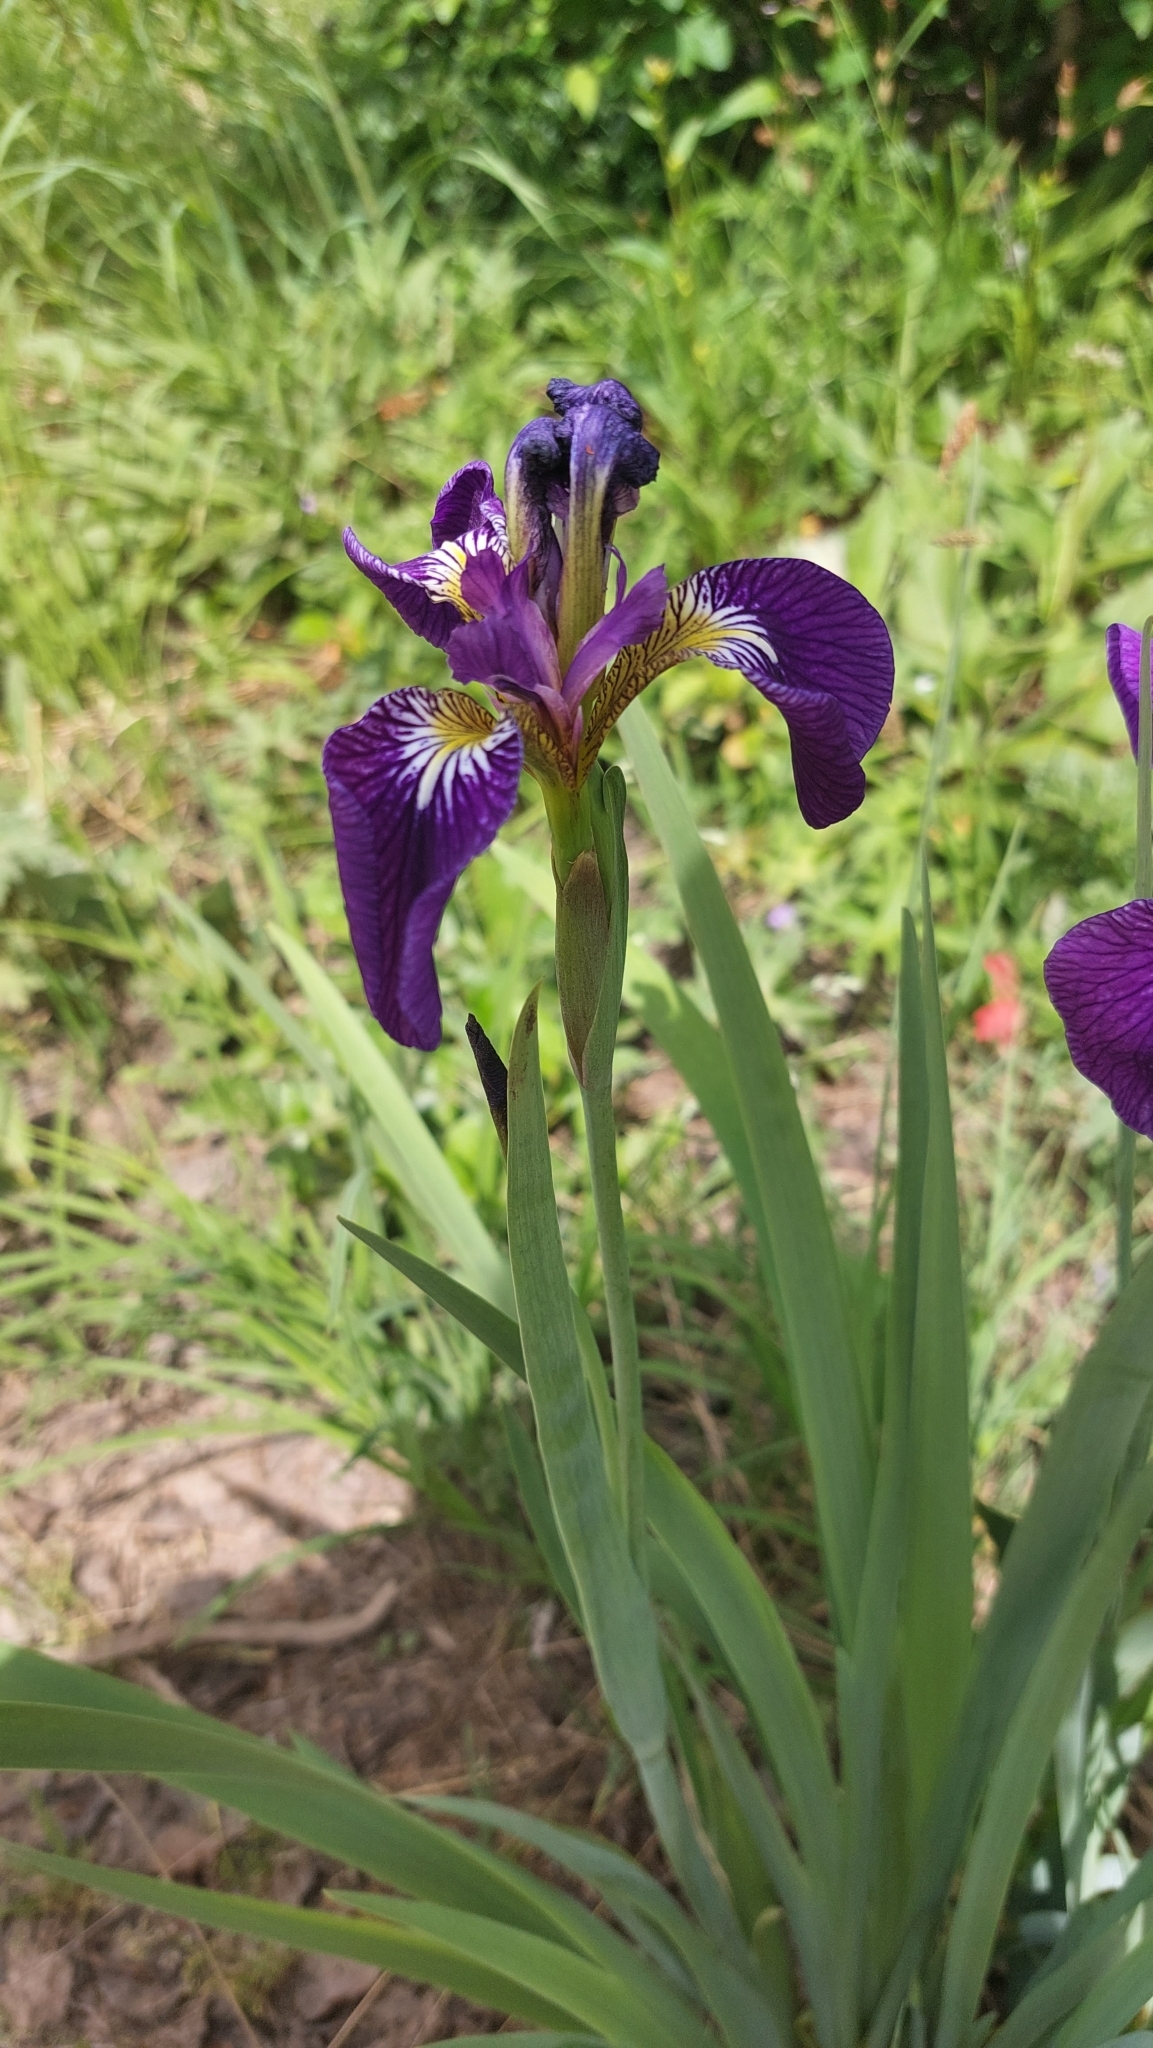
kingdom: Plantae
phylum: Tracheophyta
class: Liliopsida
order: Asparagales
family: Iridaceae
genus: Iris
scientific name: Iris setosa
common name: Arctic blue flag
